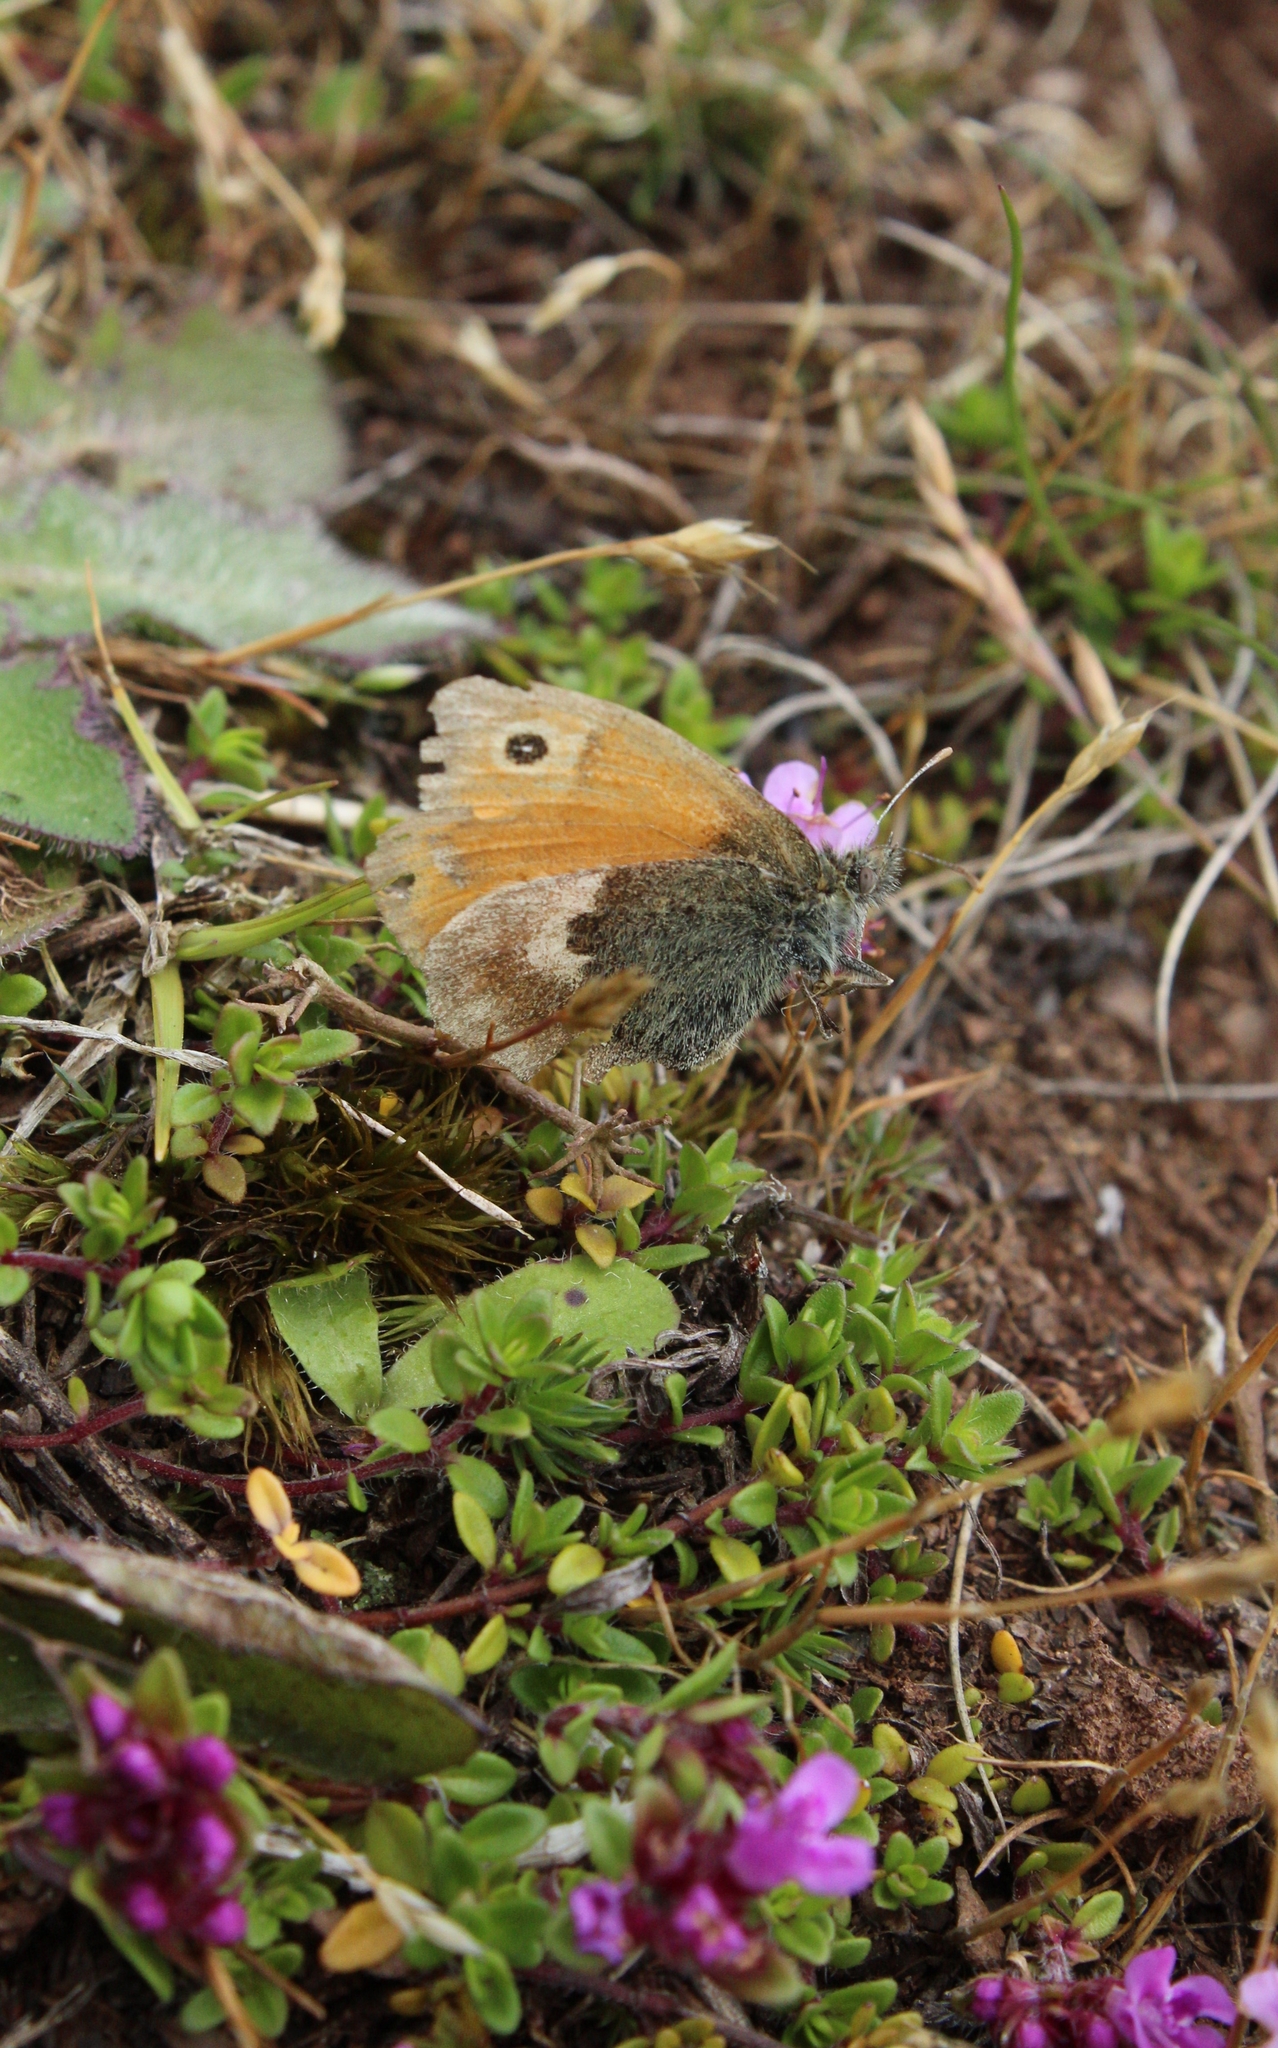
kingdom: Animalia
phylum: Arthropoda
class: Insecta
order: Lepidoptera
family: Nymphalidae
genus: Coenonympha
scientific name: Coenonympha pamphilus
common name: Small heath
